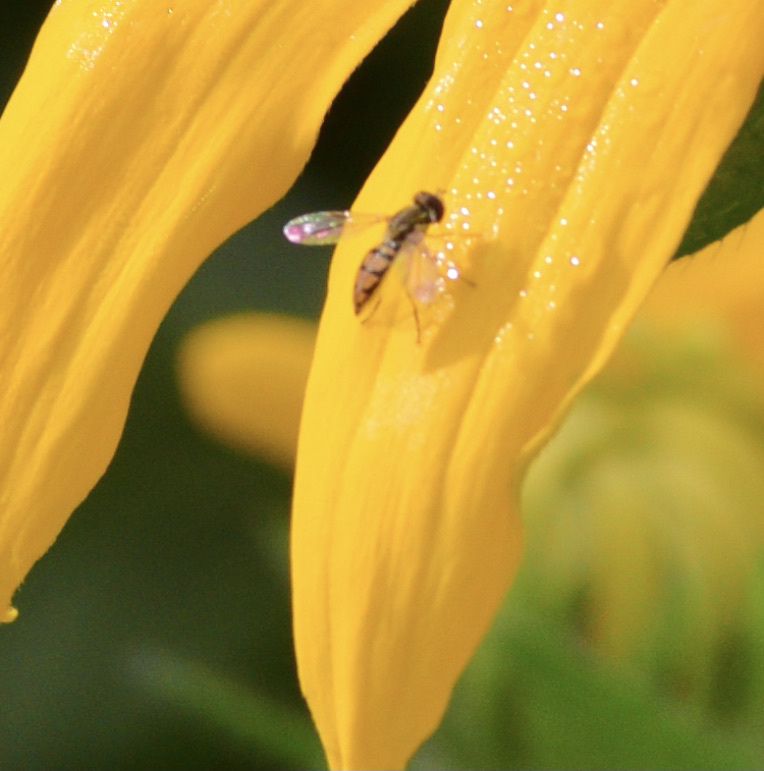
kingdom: Animalia
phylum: Arthropoda
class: Insecta
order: Diptera
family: Syrphidae
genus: Toxomerus
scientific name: Toxomerus marginatus
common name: Syrphid fly
